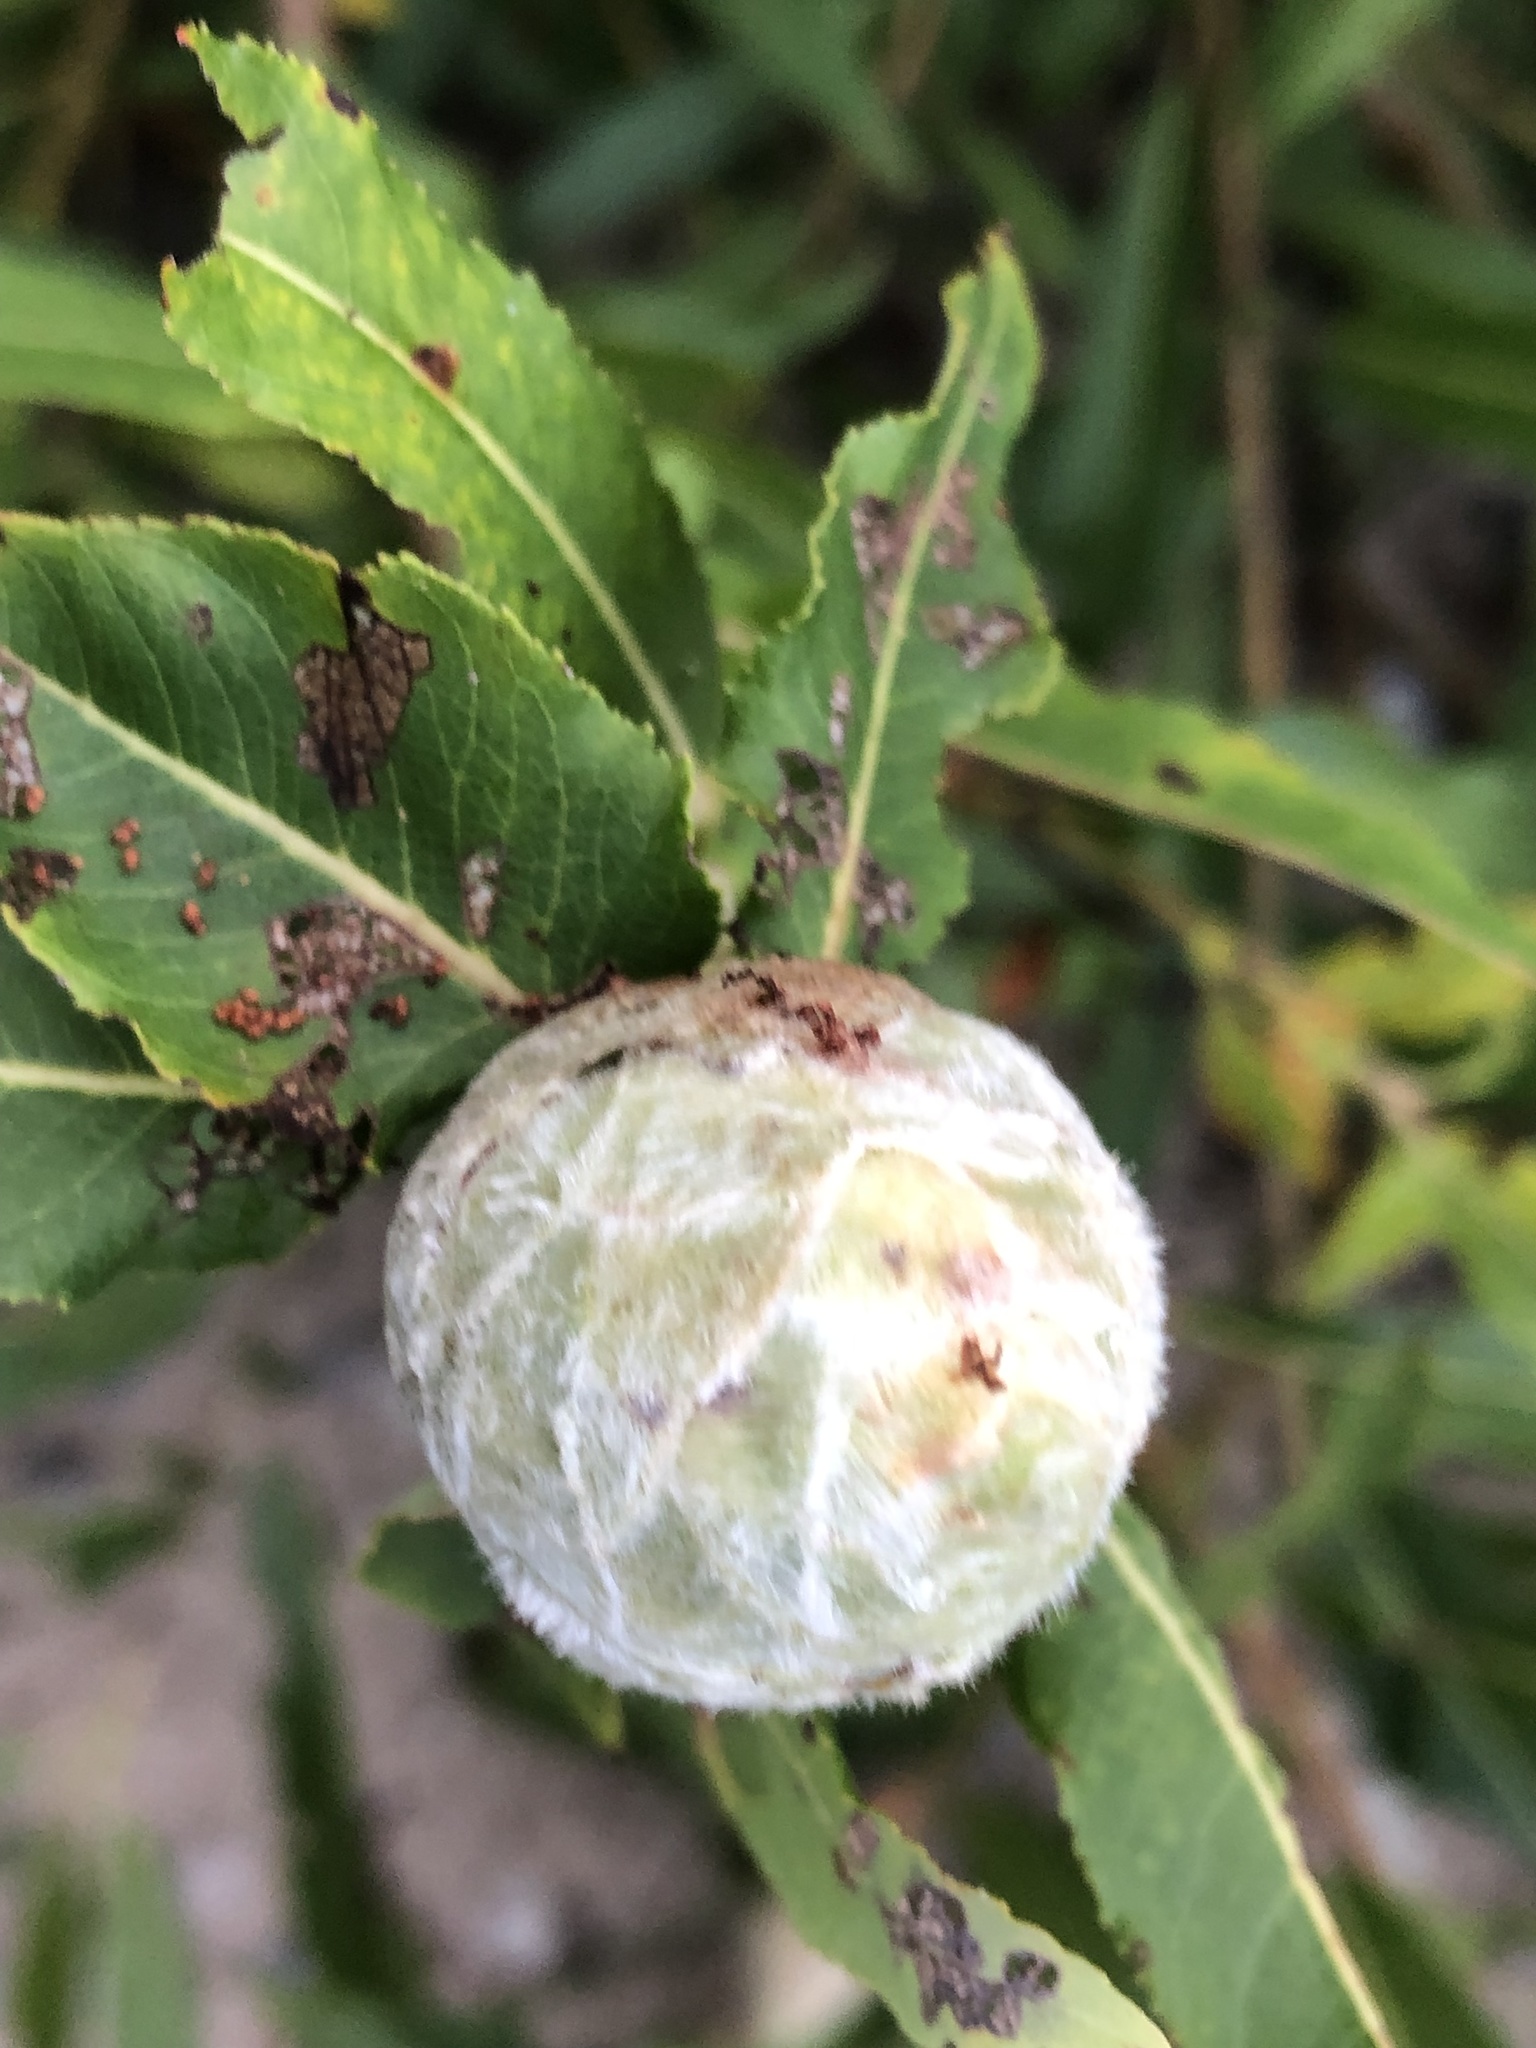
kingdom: Animalia
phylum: Arthropoda
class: Insecta
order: Diptera
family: Cecidomyiidae
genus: Rabdophaga
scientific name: Rabdophaga strobiloides
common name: Willow pinecone gall midge
